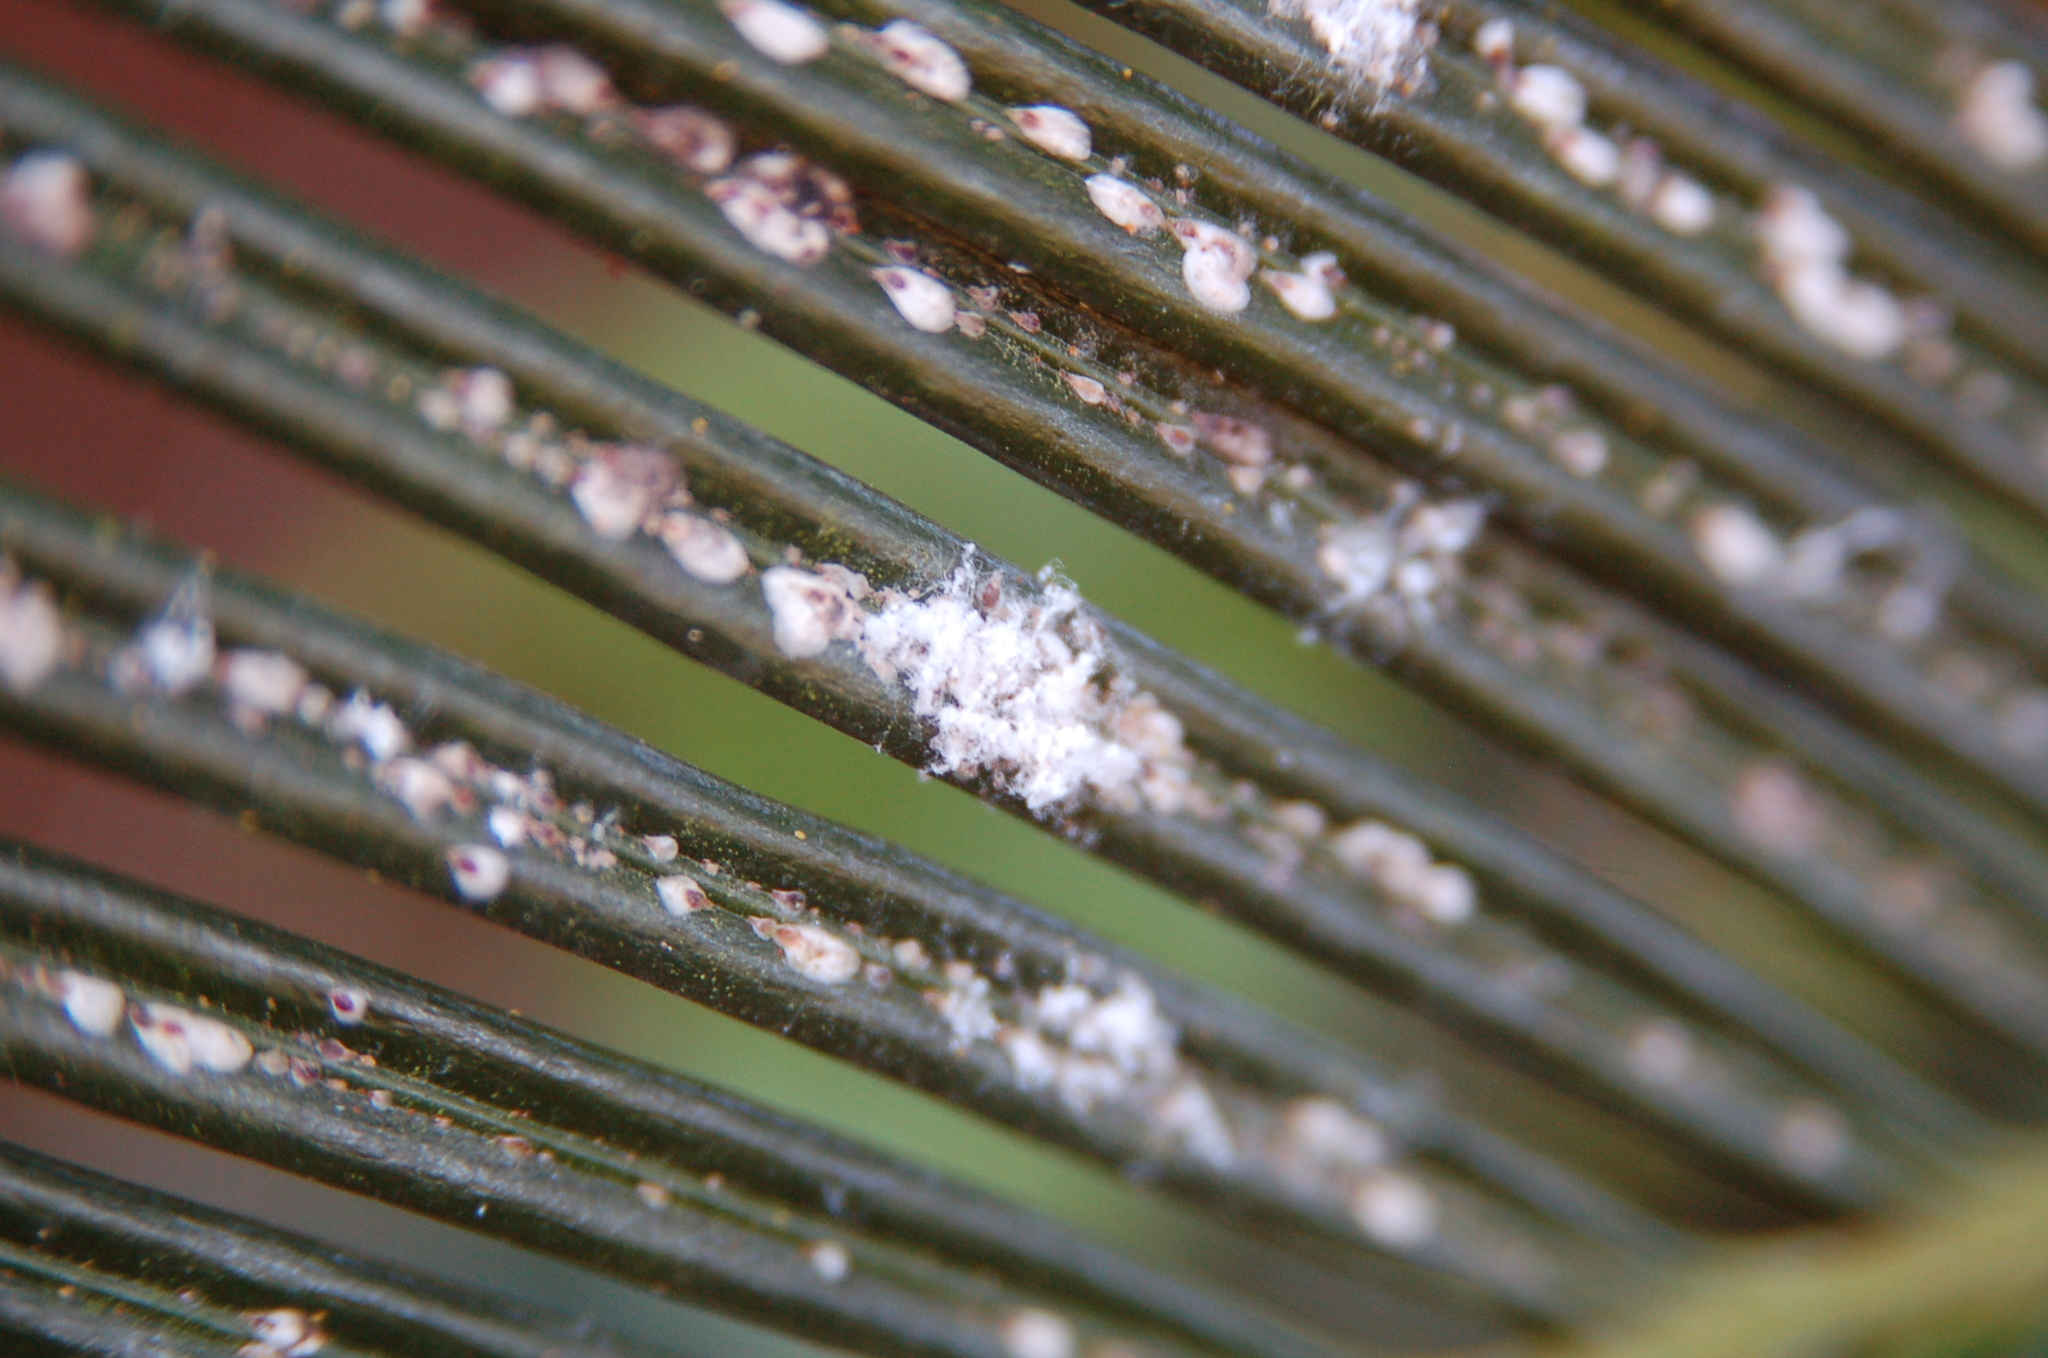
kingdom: Animalia
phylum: Arthropoda
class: Insecta
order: Hemiptera
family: Diaspididae
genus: Aulacaspis
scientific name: Aulacaspis yasumatsui
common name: Cycad aulacaspis scale
